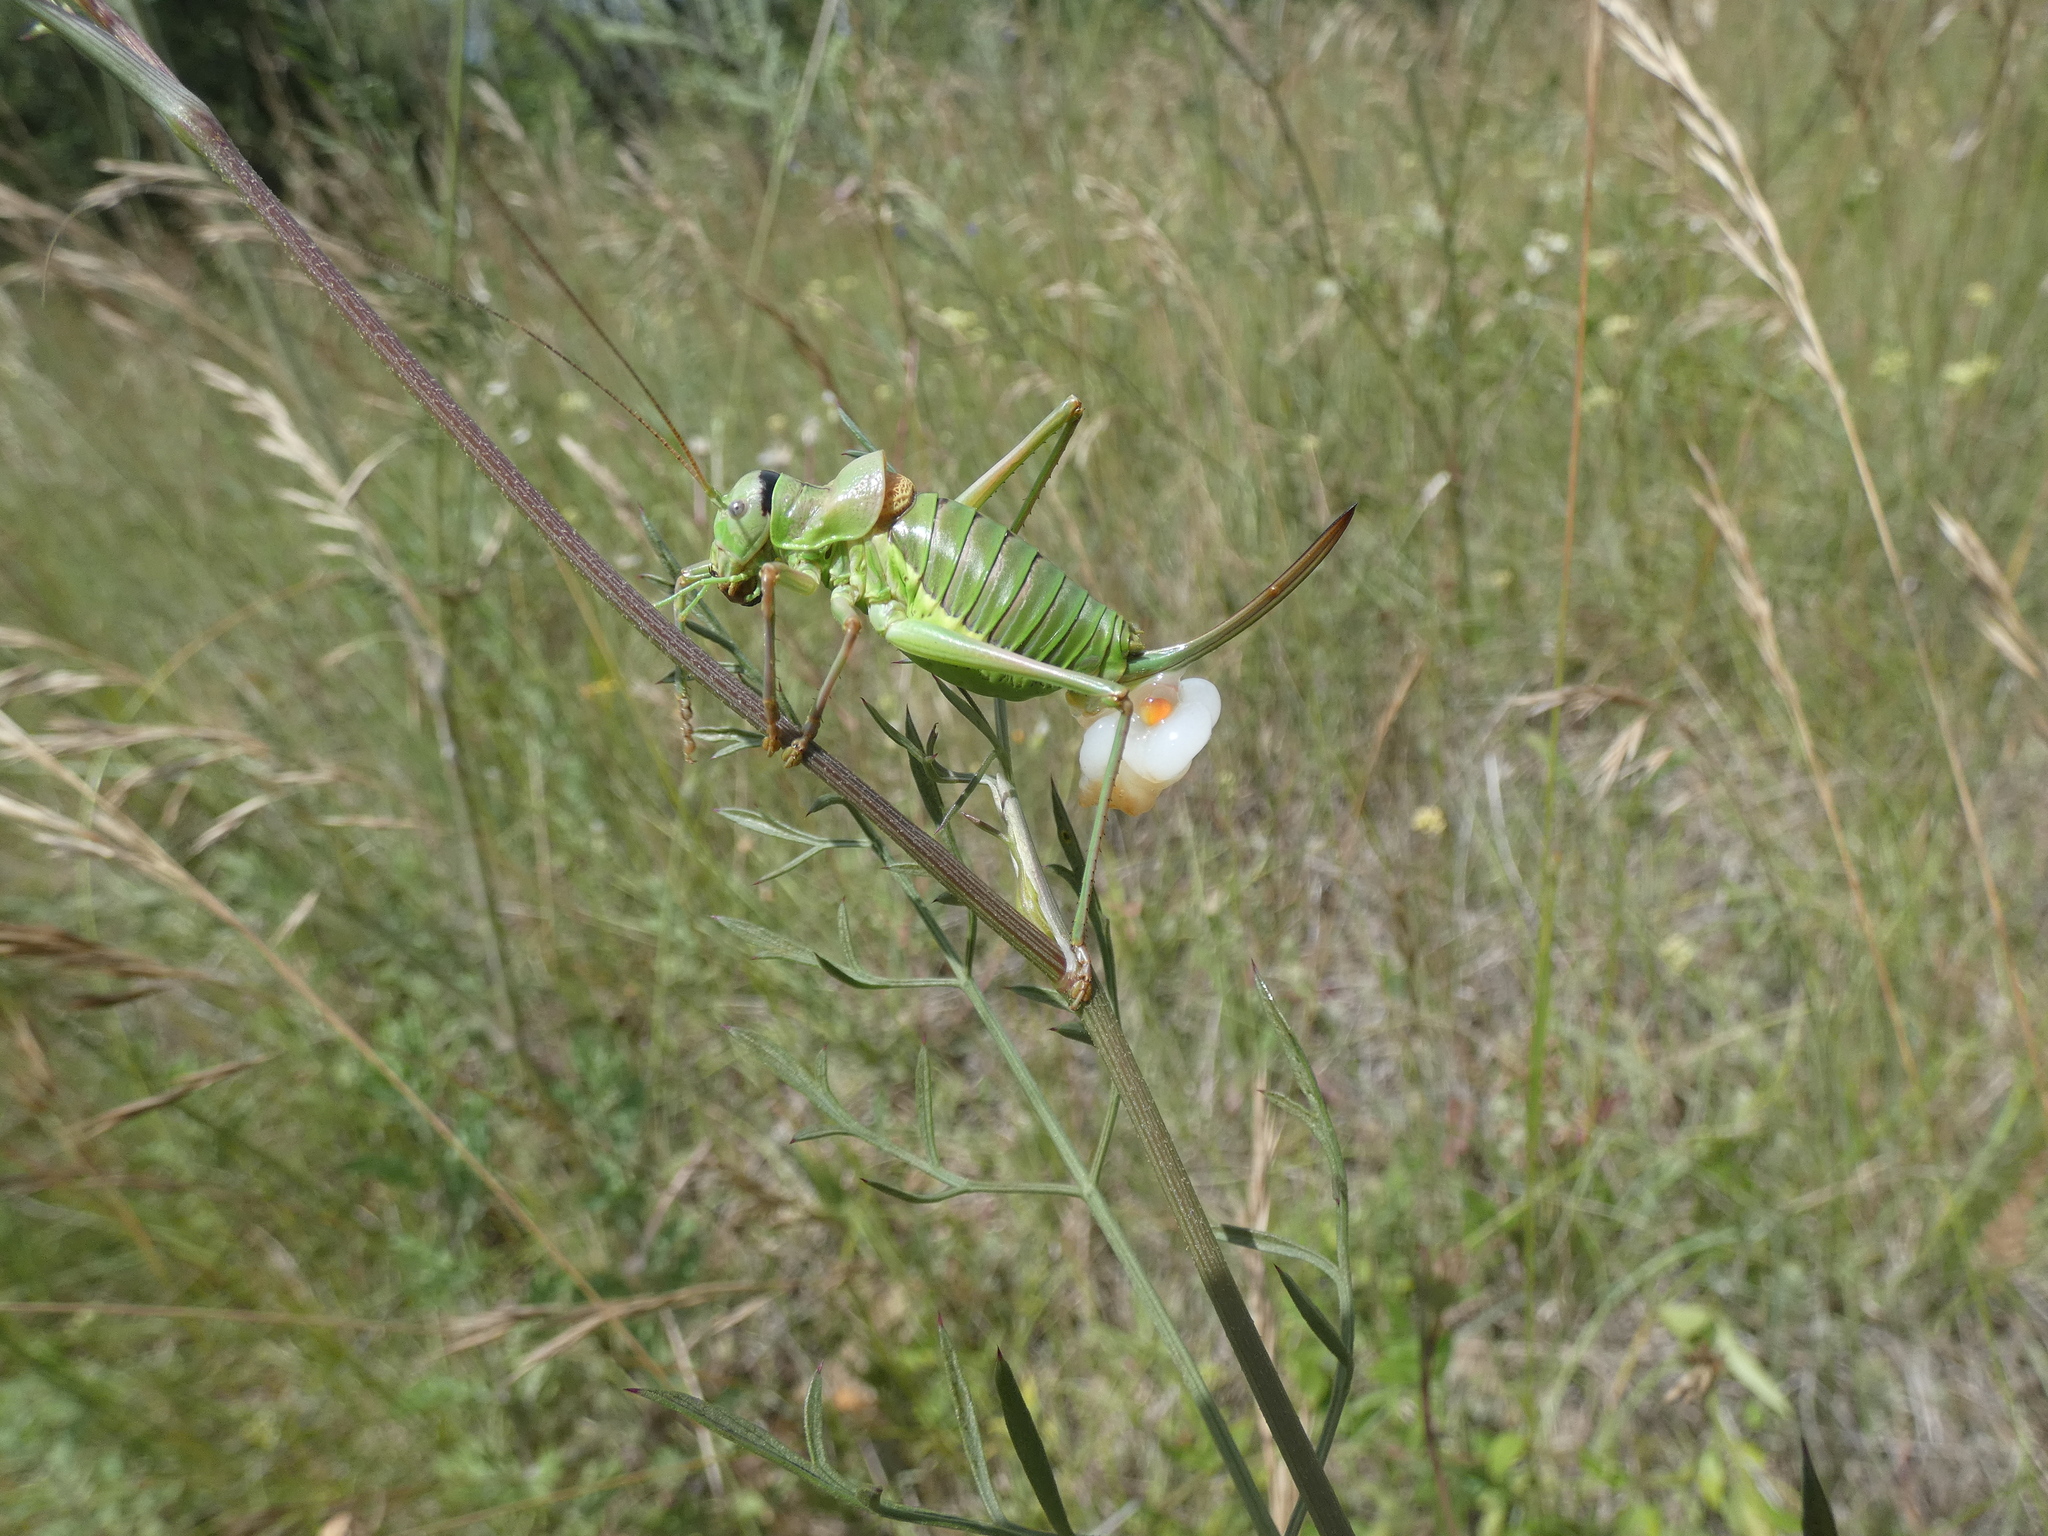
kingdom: Animalia
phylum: Arthropoda
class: Insecta
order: Orthoptera
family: Tettigoniidae
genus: Ephippiger
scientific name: Ephippiger diurnus
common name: Western saddle bush-cricket
